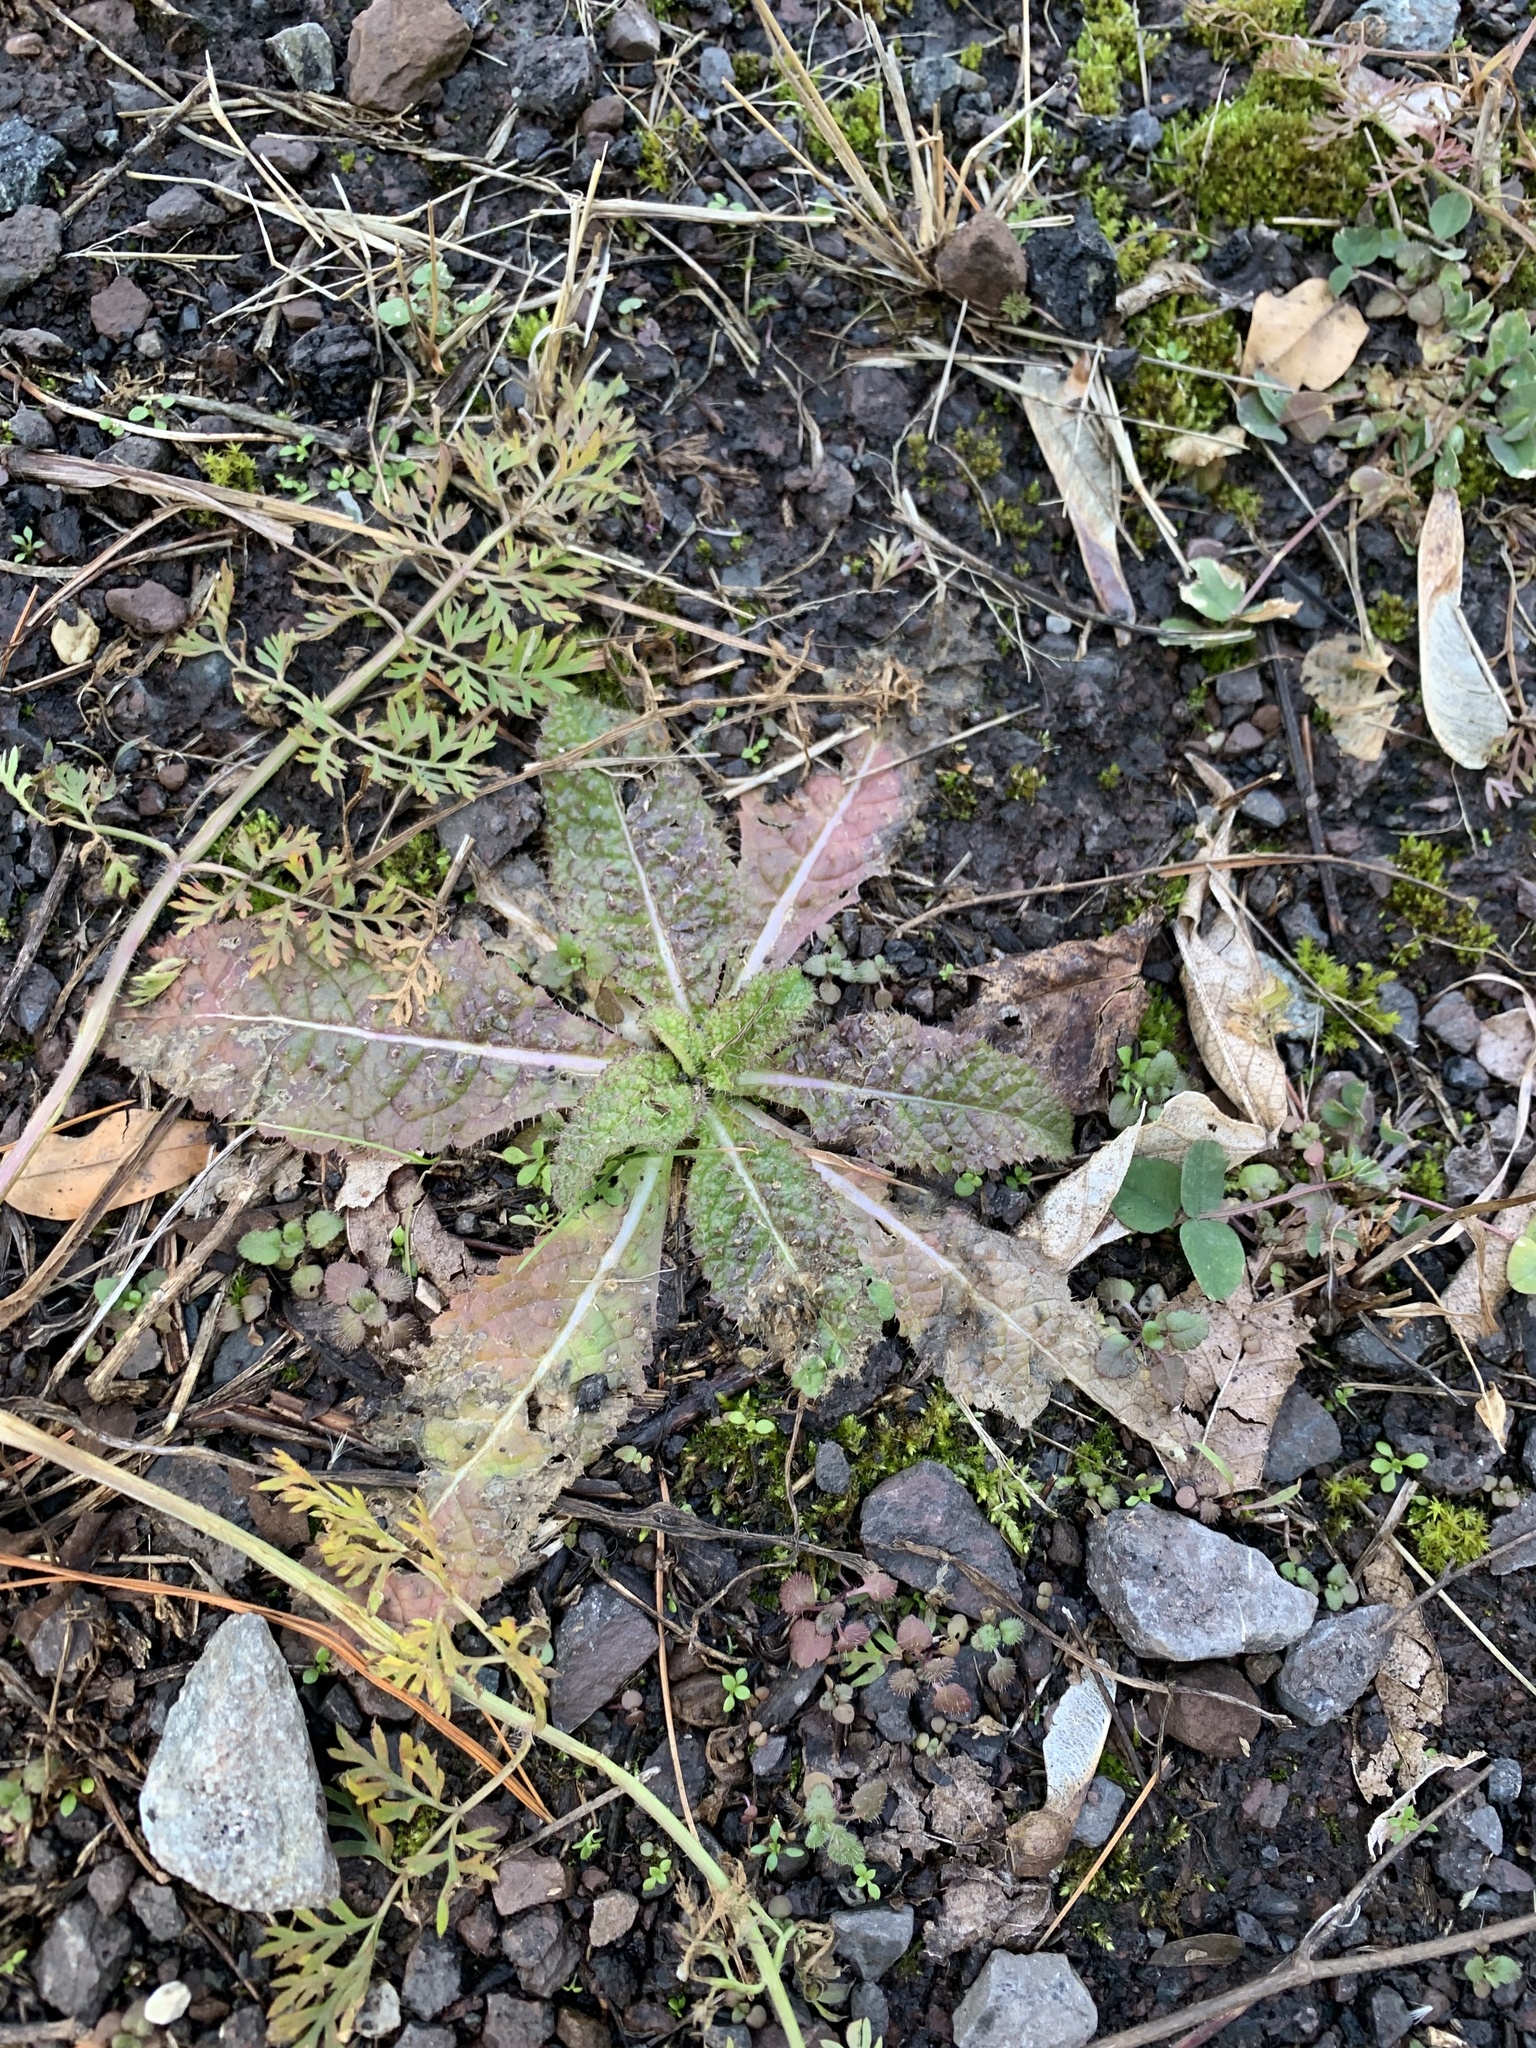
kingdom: Plantae
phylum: Tracheophyta
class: Magnoliopsida
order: Dipsacales
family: Caprifoliaceae
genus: Dipsacus
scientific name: Dipsacus fullonum
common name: Teasel
